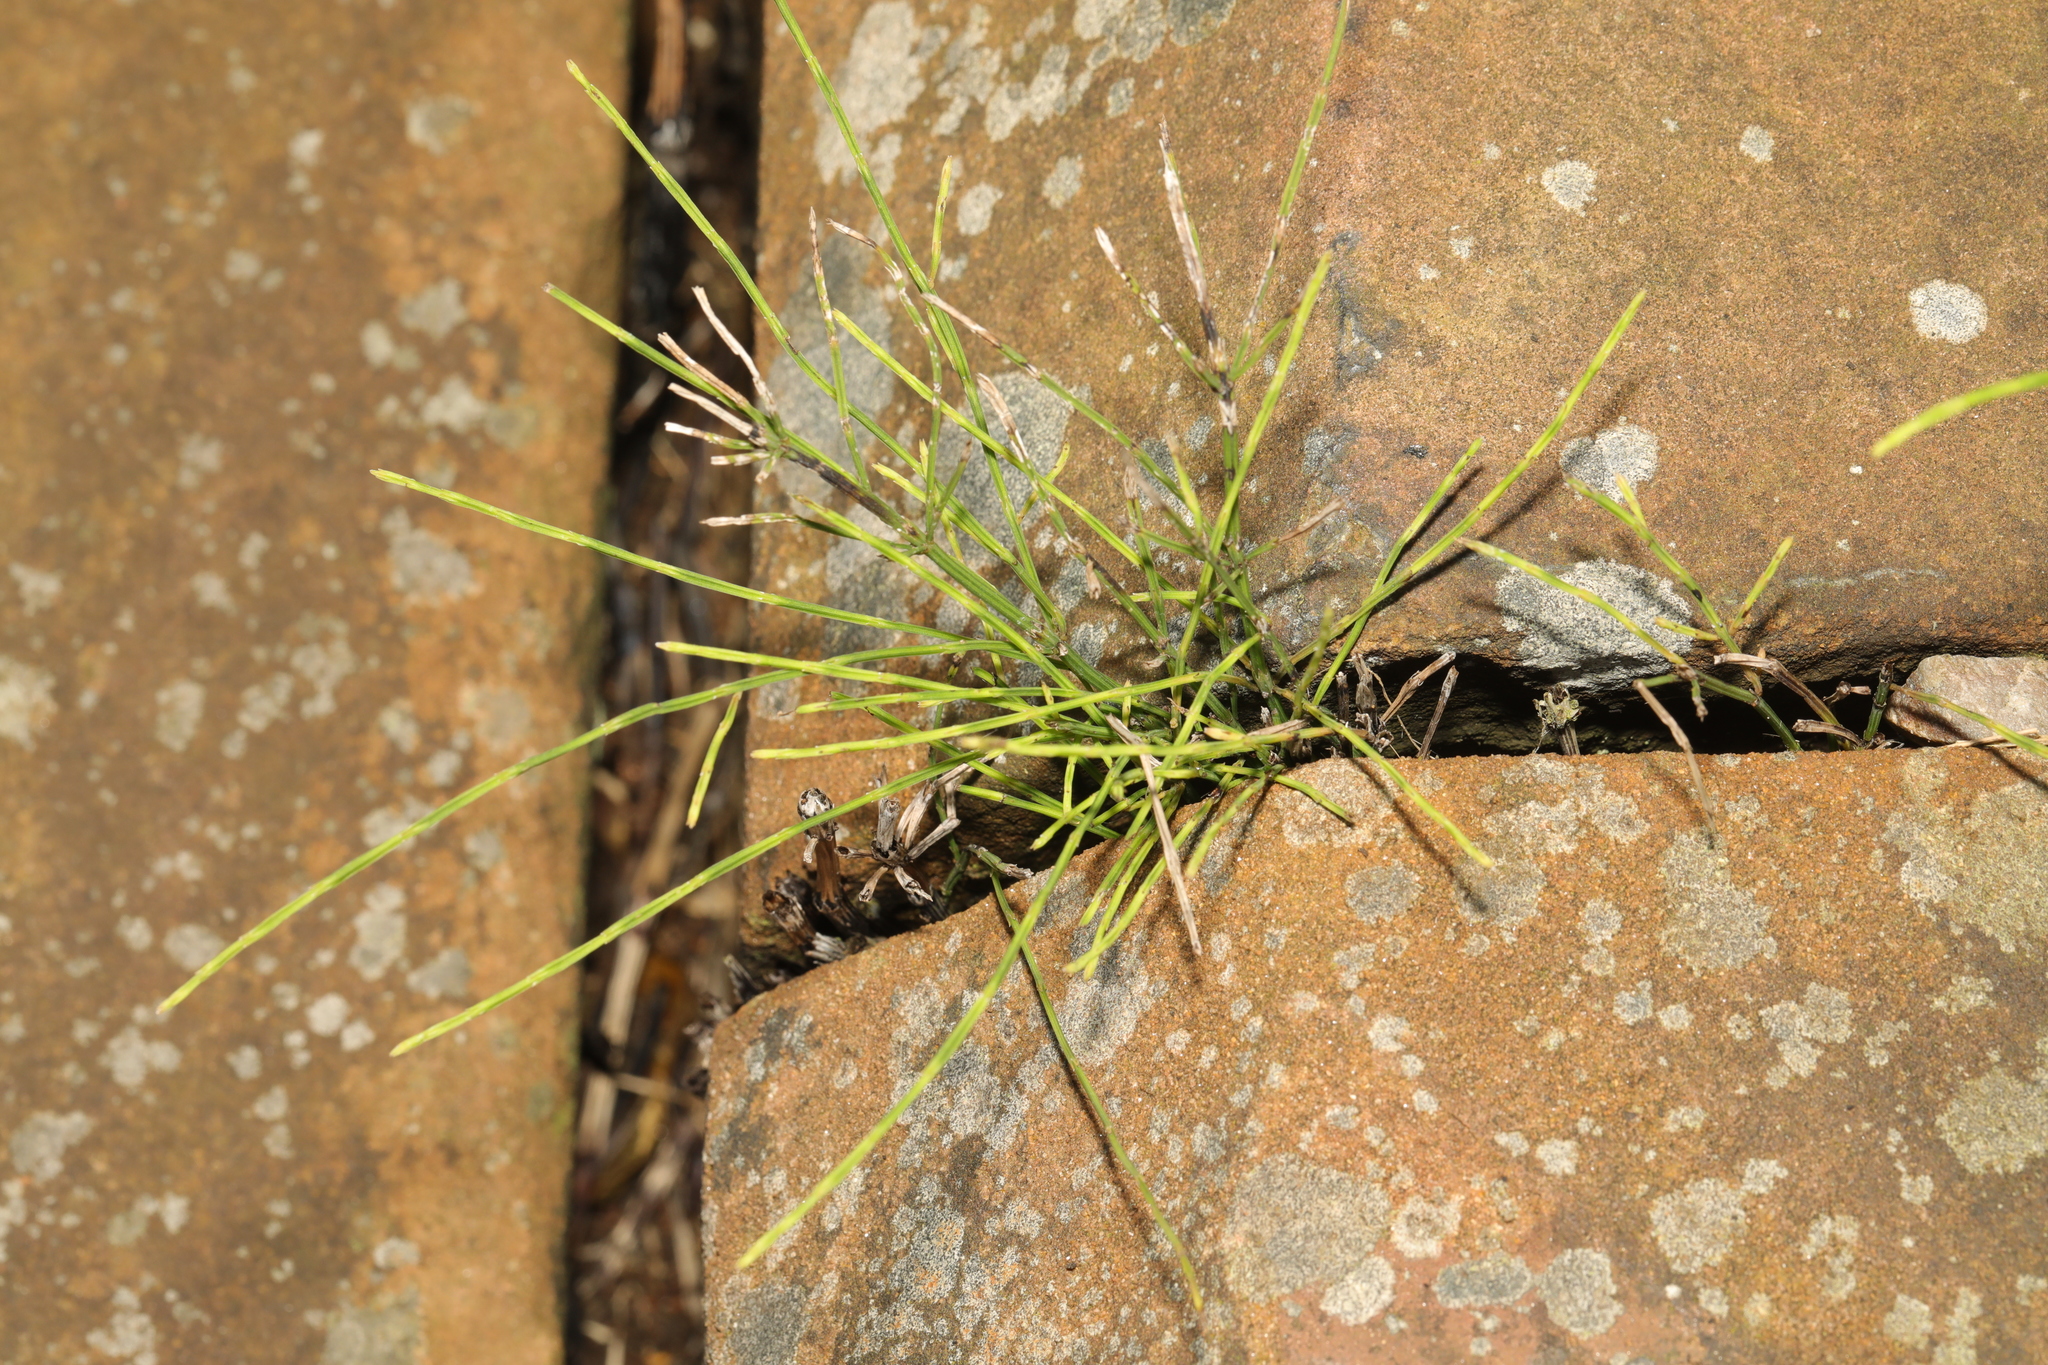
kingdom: Plantae
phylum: Tracheophyta
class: Polypodiopsida
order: Equisetales
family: Equisetaceae
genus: Equisetum
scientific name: Equisetum arvense
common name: Field horsetail
